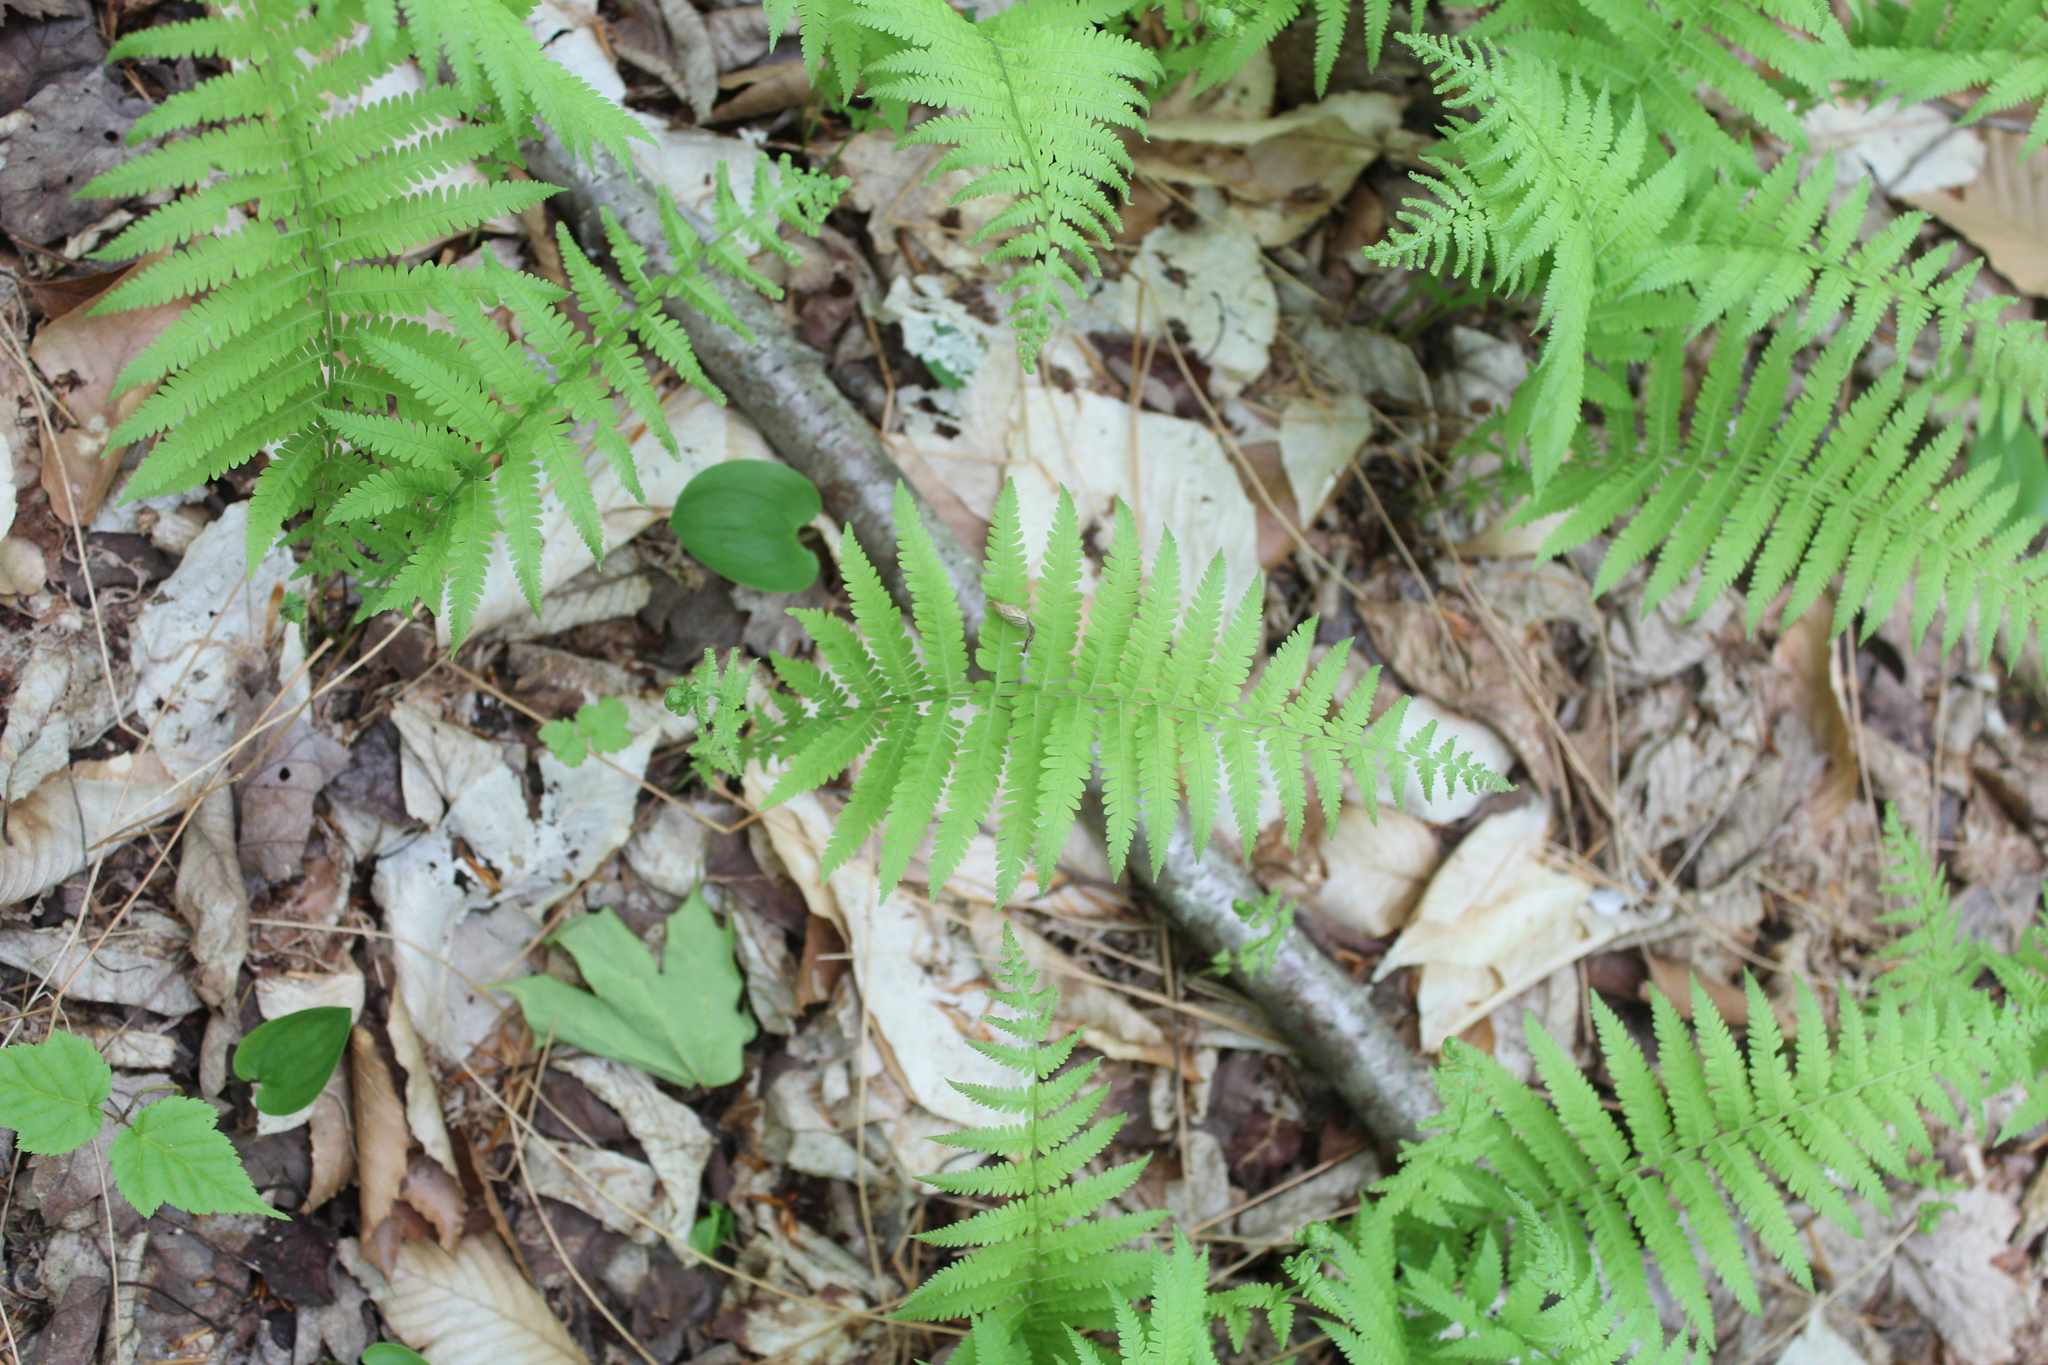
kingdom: Plantae
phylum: Tracheophyta
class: Polypodiopsida
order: Polypodiales
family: Thelypteridaceae
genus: Amauropelta
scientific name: Amauropelta noveboracensis
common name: New york fern
